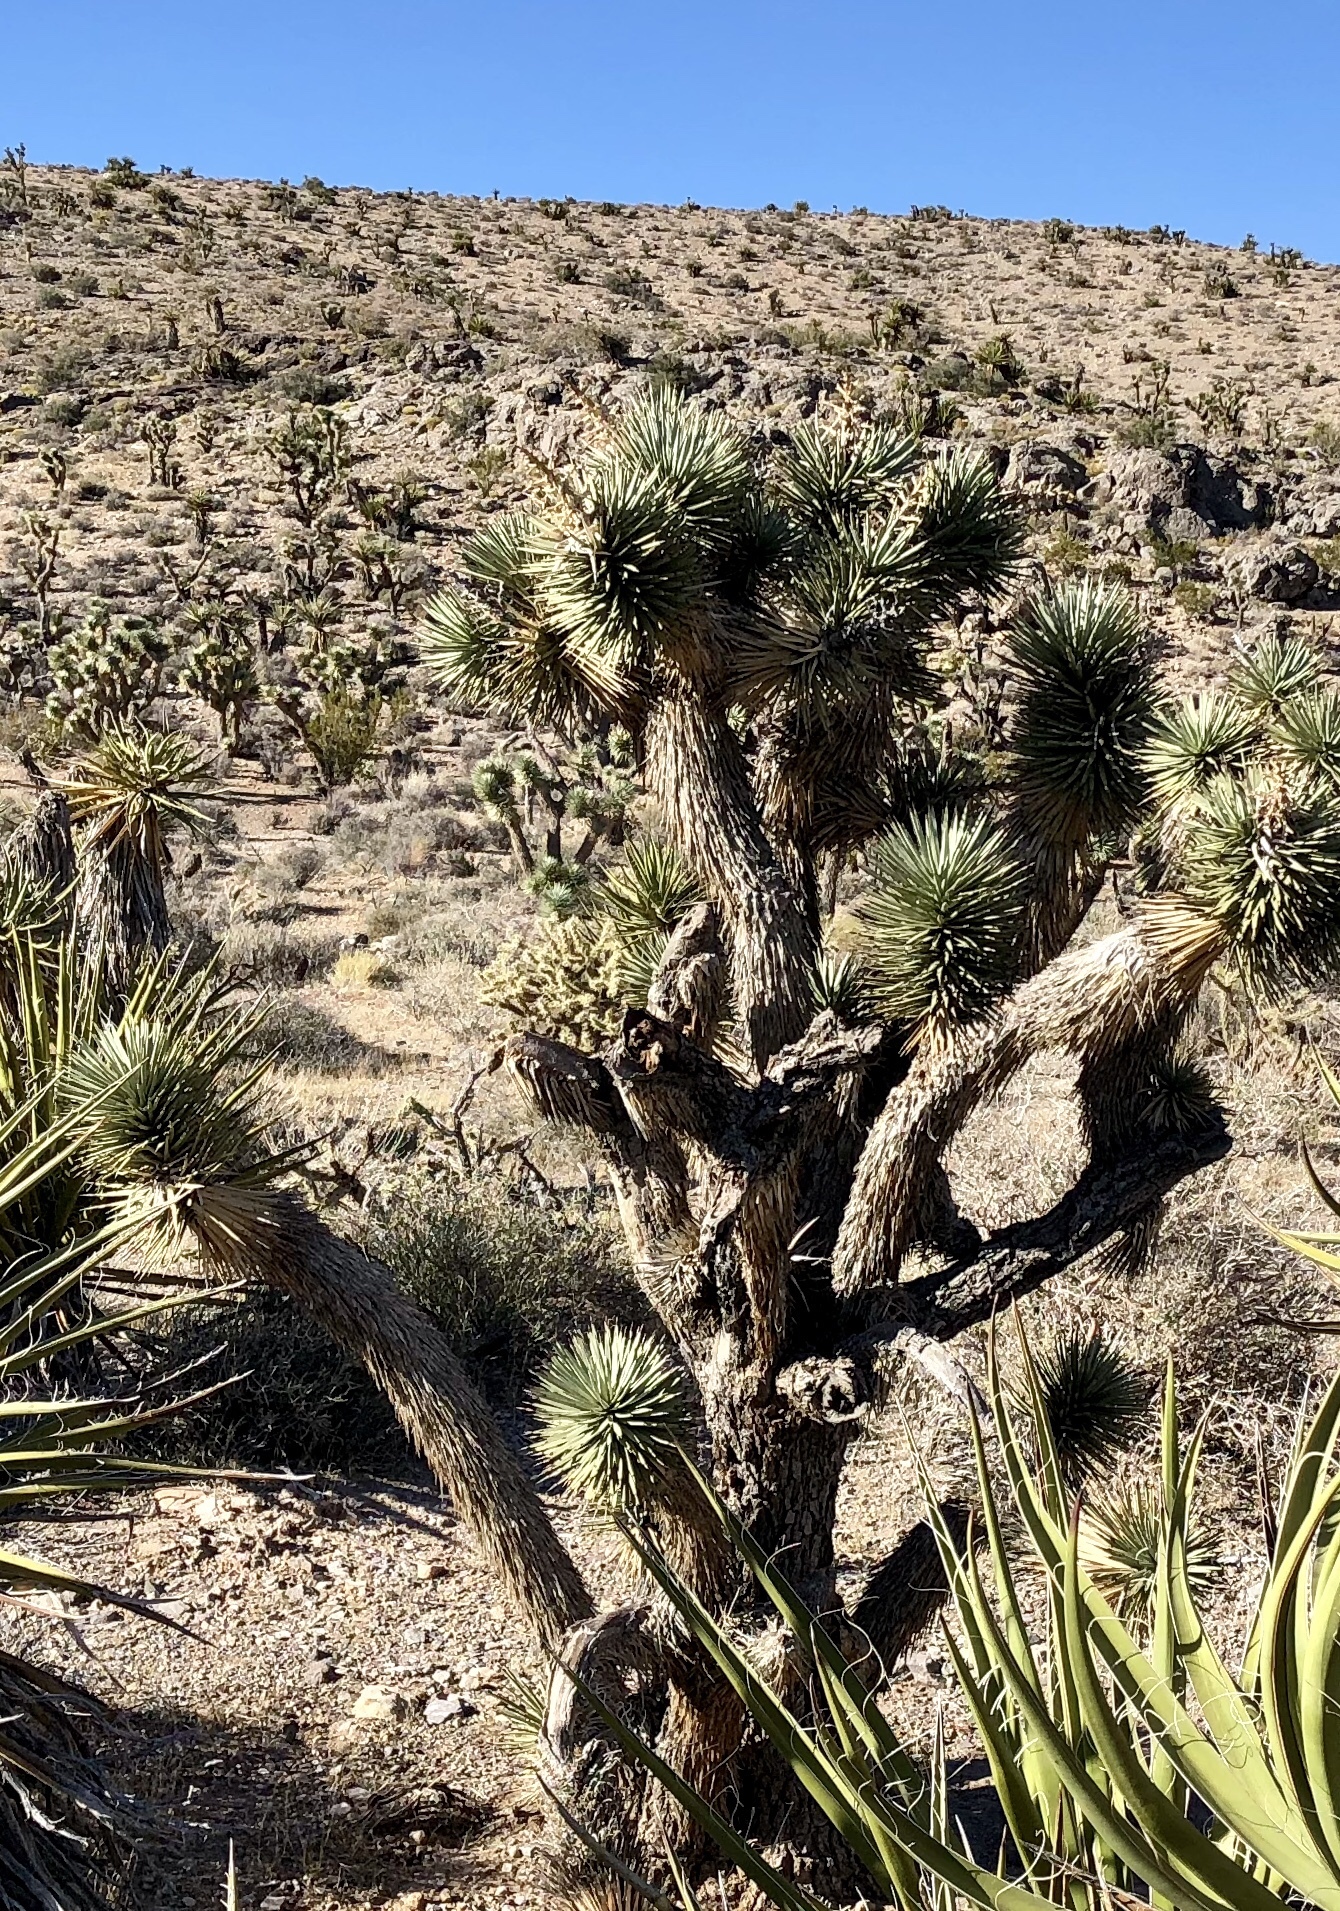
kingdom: Plantae
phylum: Tracheophyta
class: Liliopsida
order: Asparagales
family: Asparagaceae
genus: Yucca
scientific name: Yucca brevifolia
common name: Joshua tree
